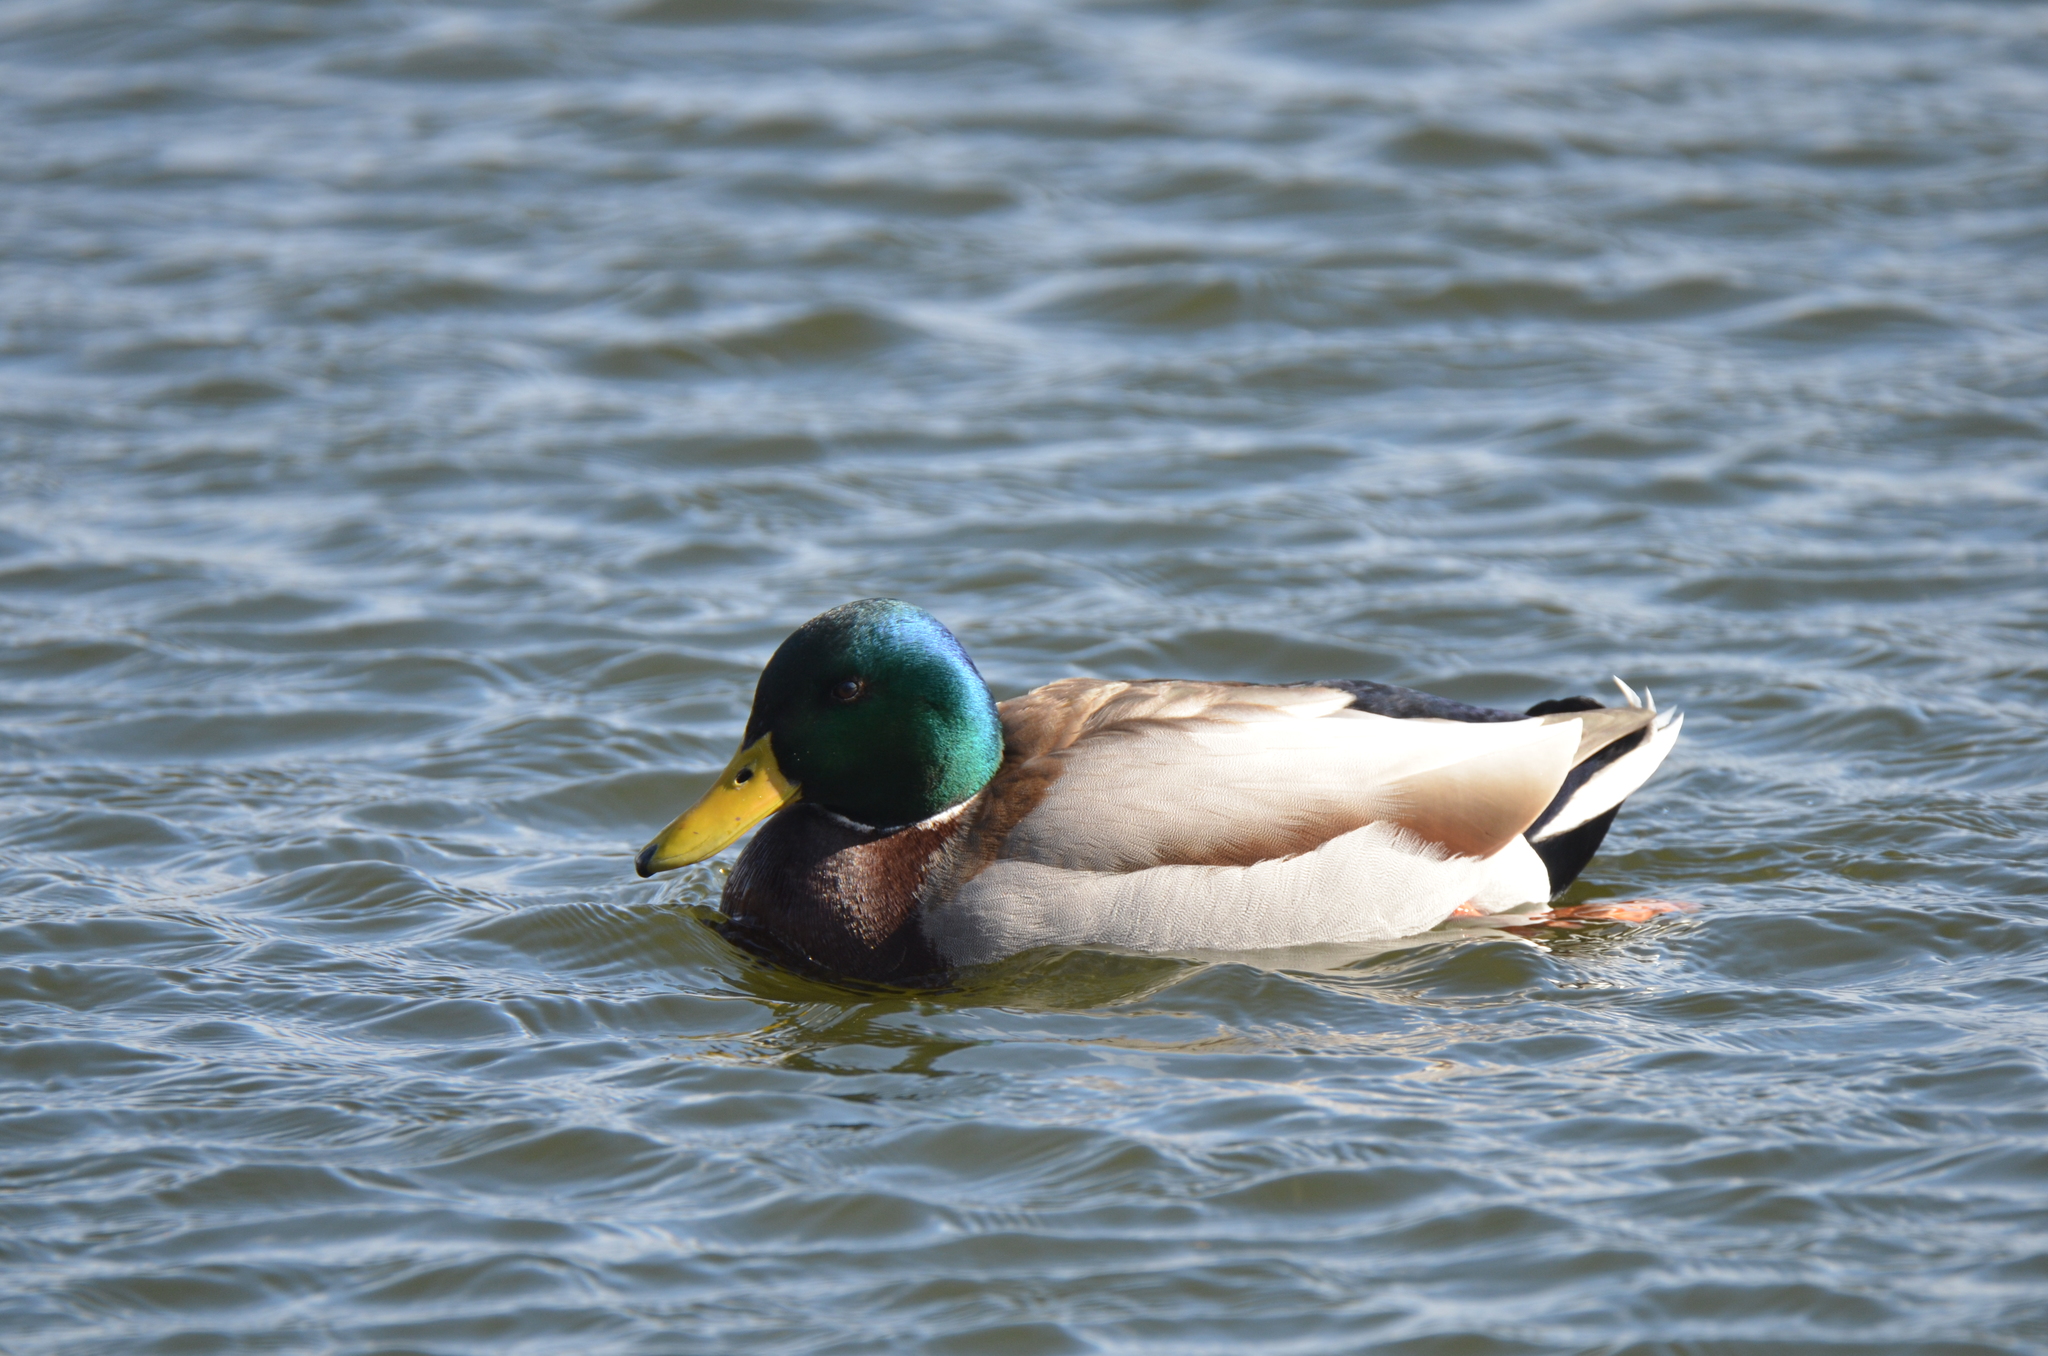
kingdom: Animalia
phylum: Chordata
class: Aves
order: Anseriformes
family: Anatidae
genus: Anas
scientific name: Anas platyrhynchos
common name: Mallard
